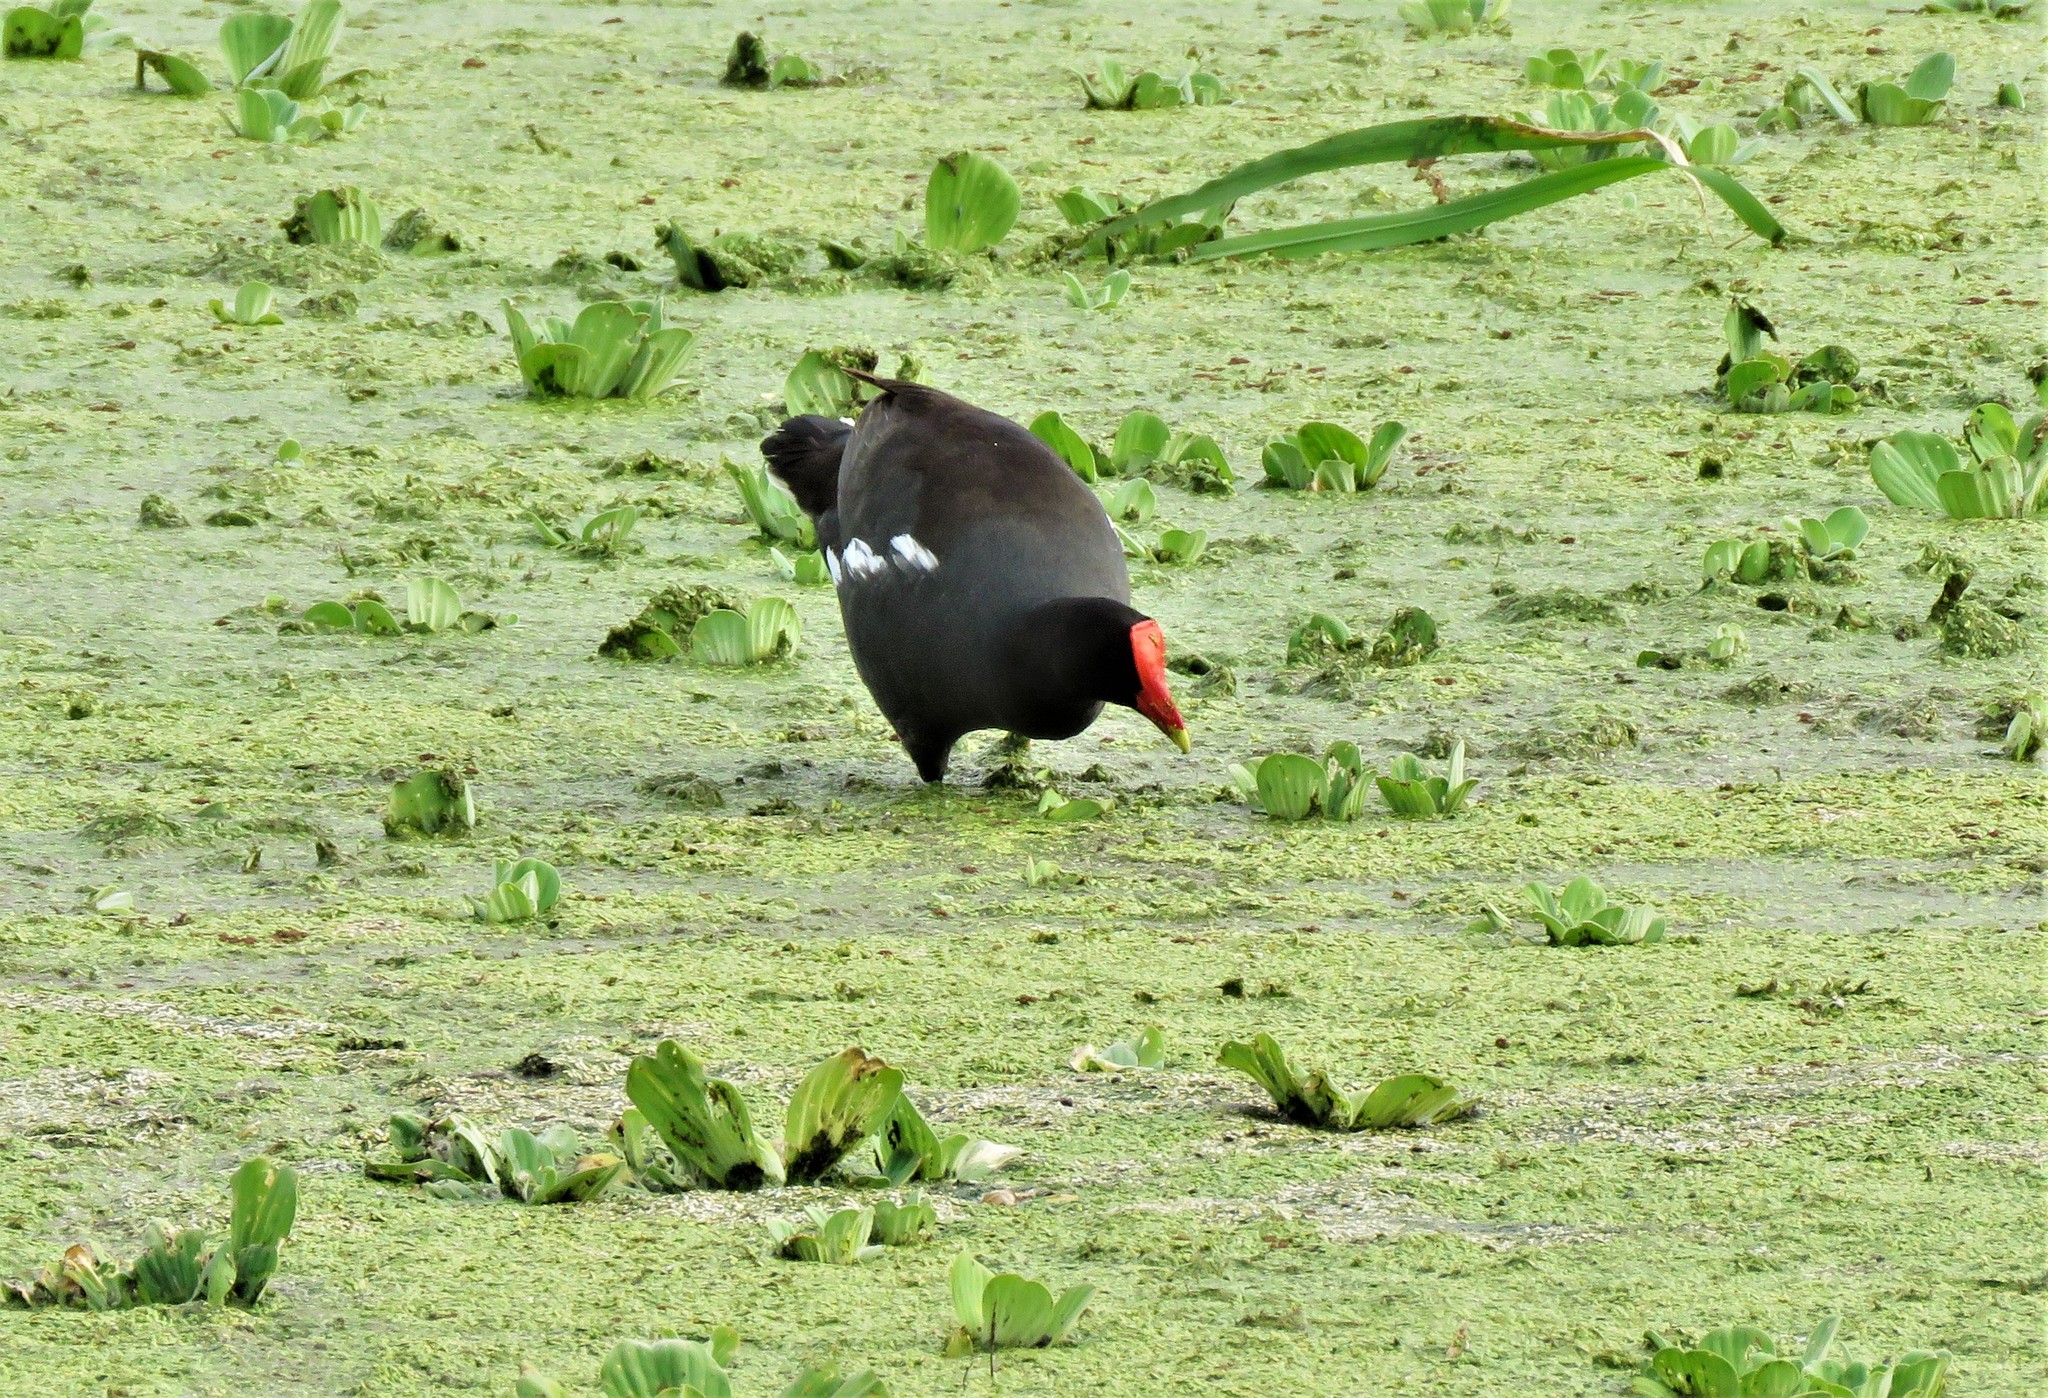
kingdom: Animalia
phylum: Chordata
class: Aves
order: Gruiformes
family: Rallidae
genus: Gallinula
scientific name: Gallinula chloropus
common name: Common moorhen
